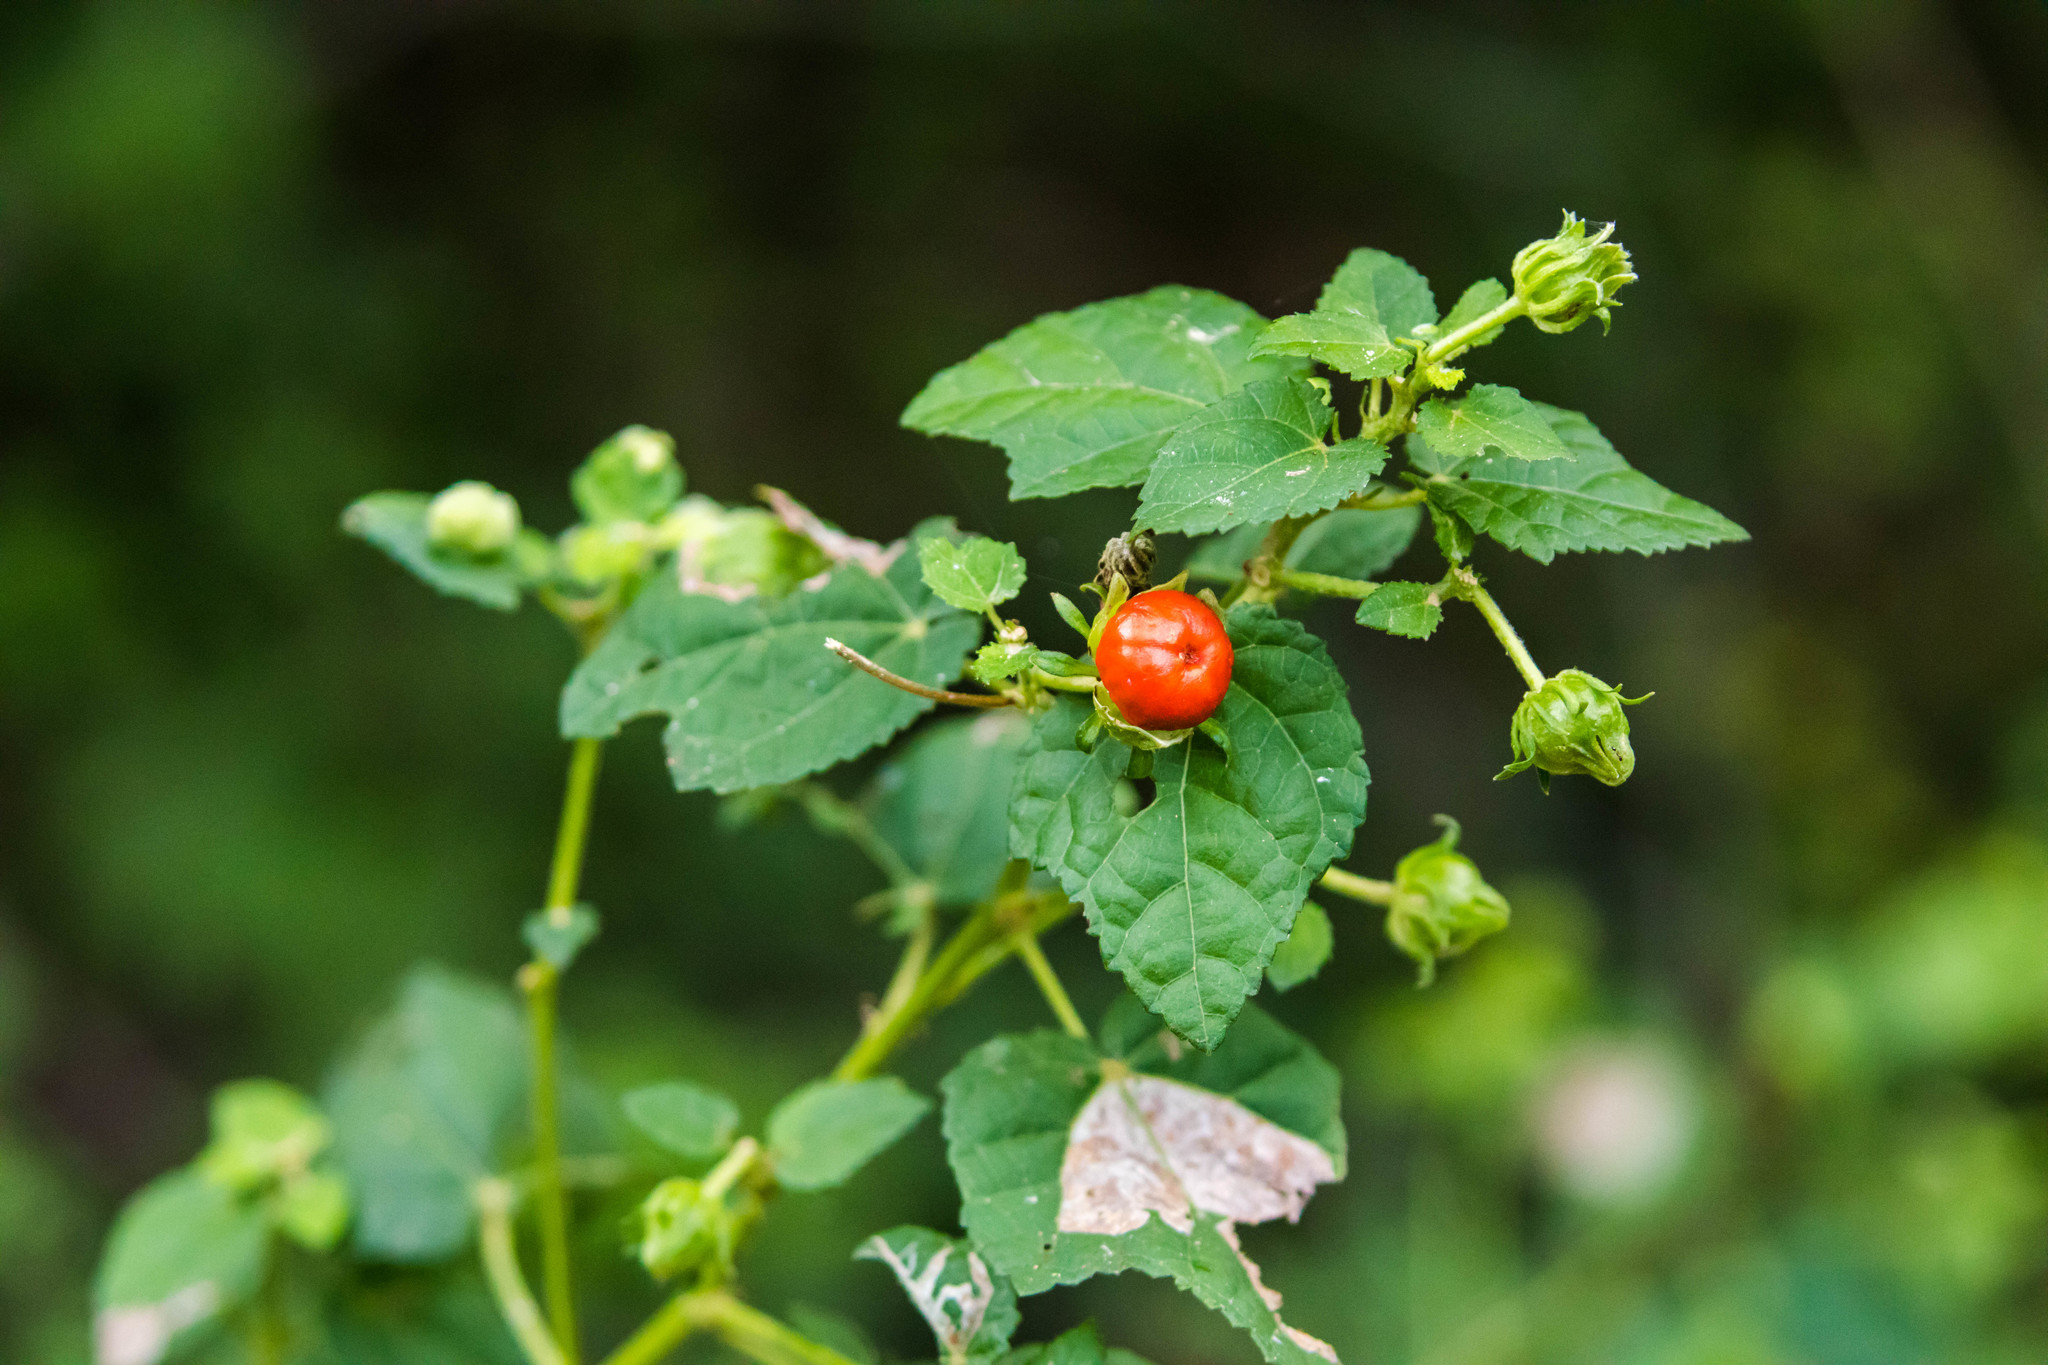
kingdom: Plantae
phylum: Tracheophyta
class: Magnoliopsida
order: Malvales
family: Malvaceae
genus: Malvaviscus
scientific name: Malvaviscus arboreus
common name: Wax mallow
